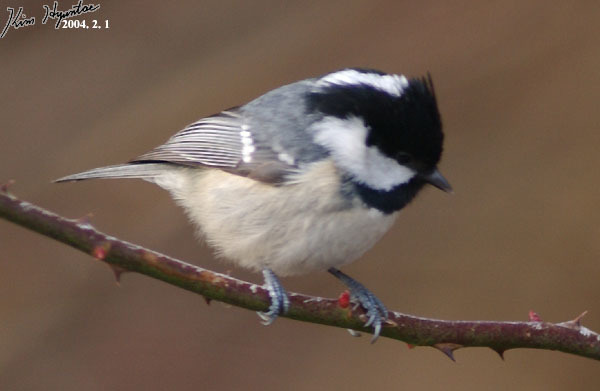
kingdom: Animalia
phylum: Chordata
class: Aves
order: Passeriformes
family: Paridae
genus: Periparus
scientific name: Periparus ater
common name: Coal tit
